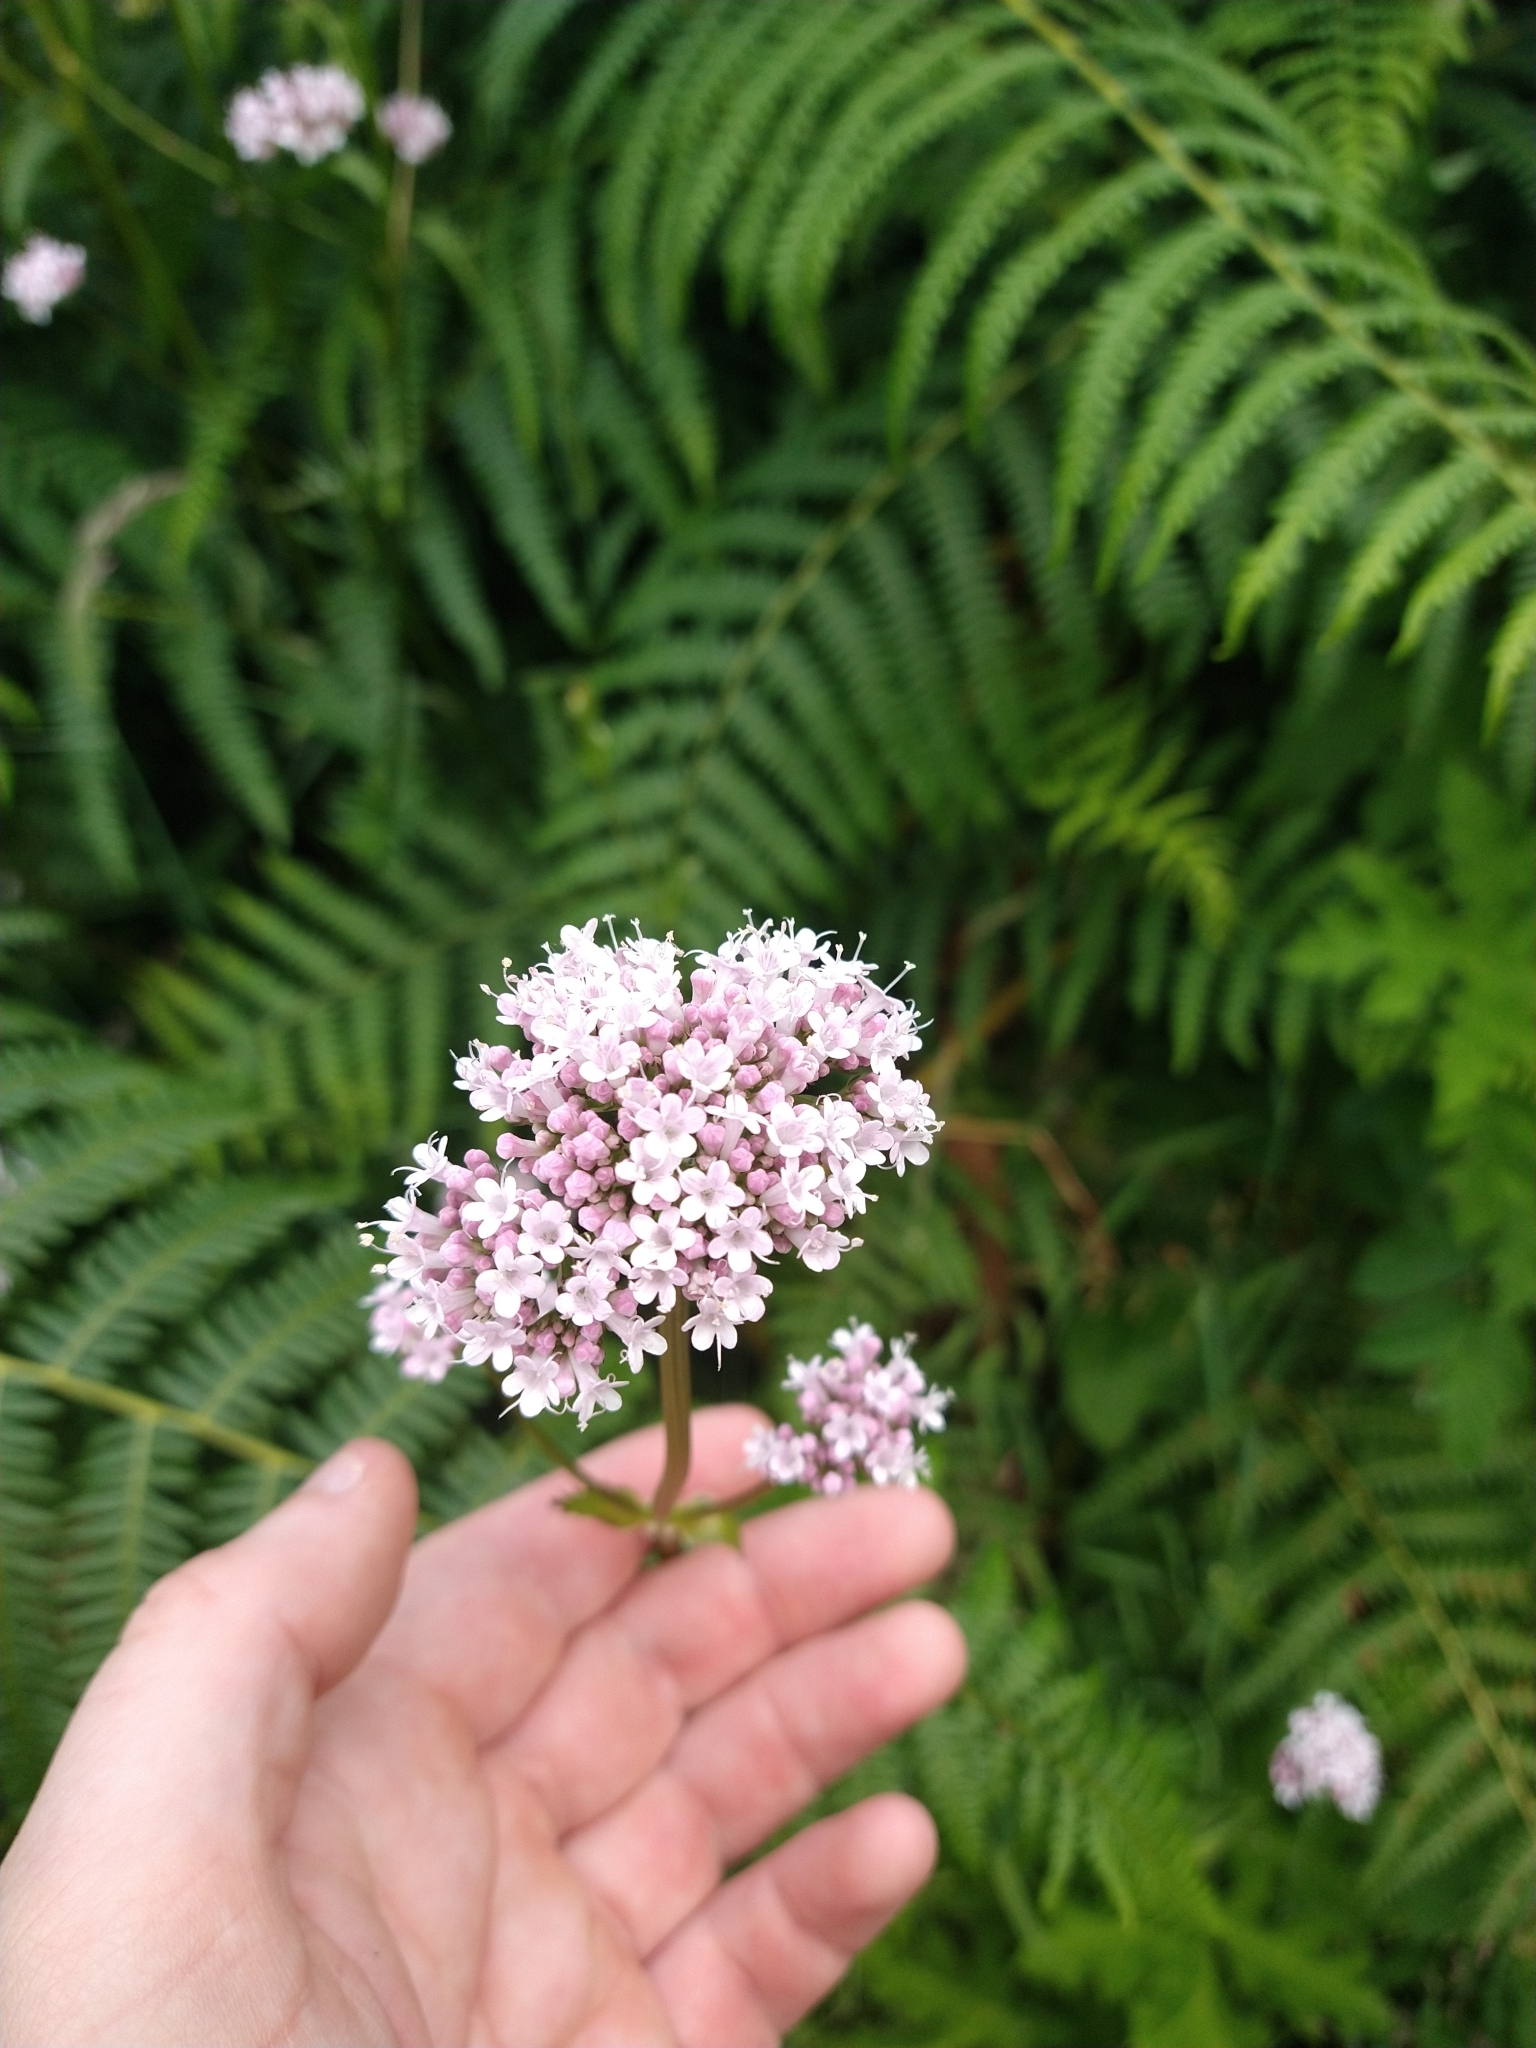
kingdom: Plantae
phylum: Tracheophyta
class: Magnoliopsida
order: Dipsacales
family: Caprifoliaceae
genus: Valeriana
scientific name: Valeriana officinalis
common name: Common valerian
